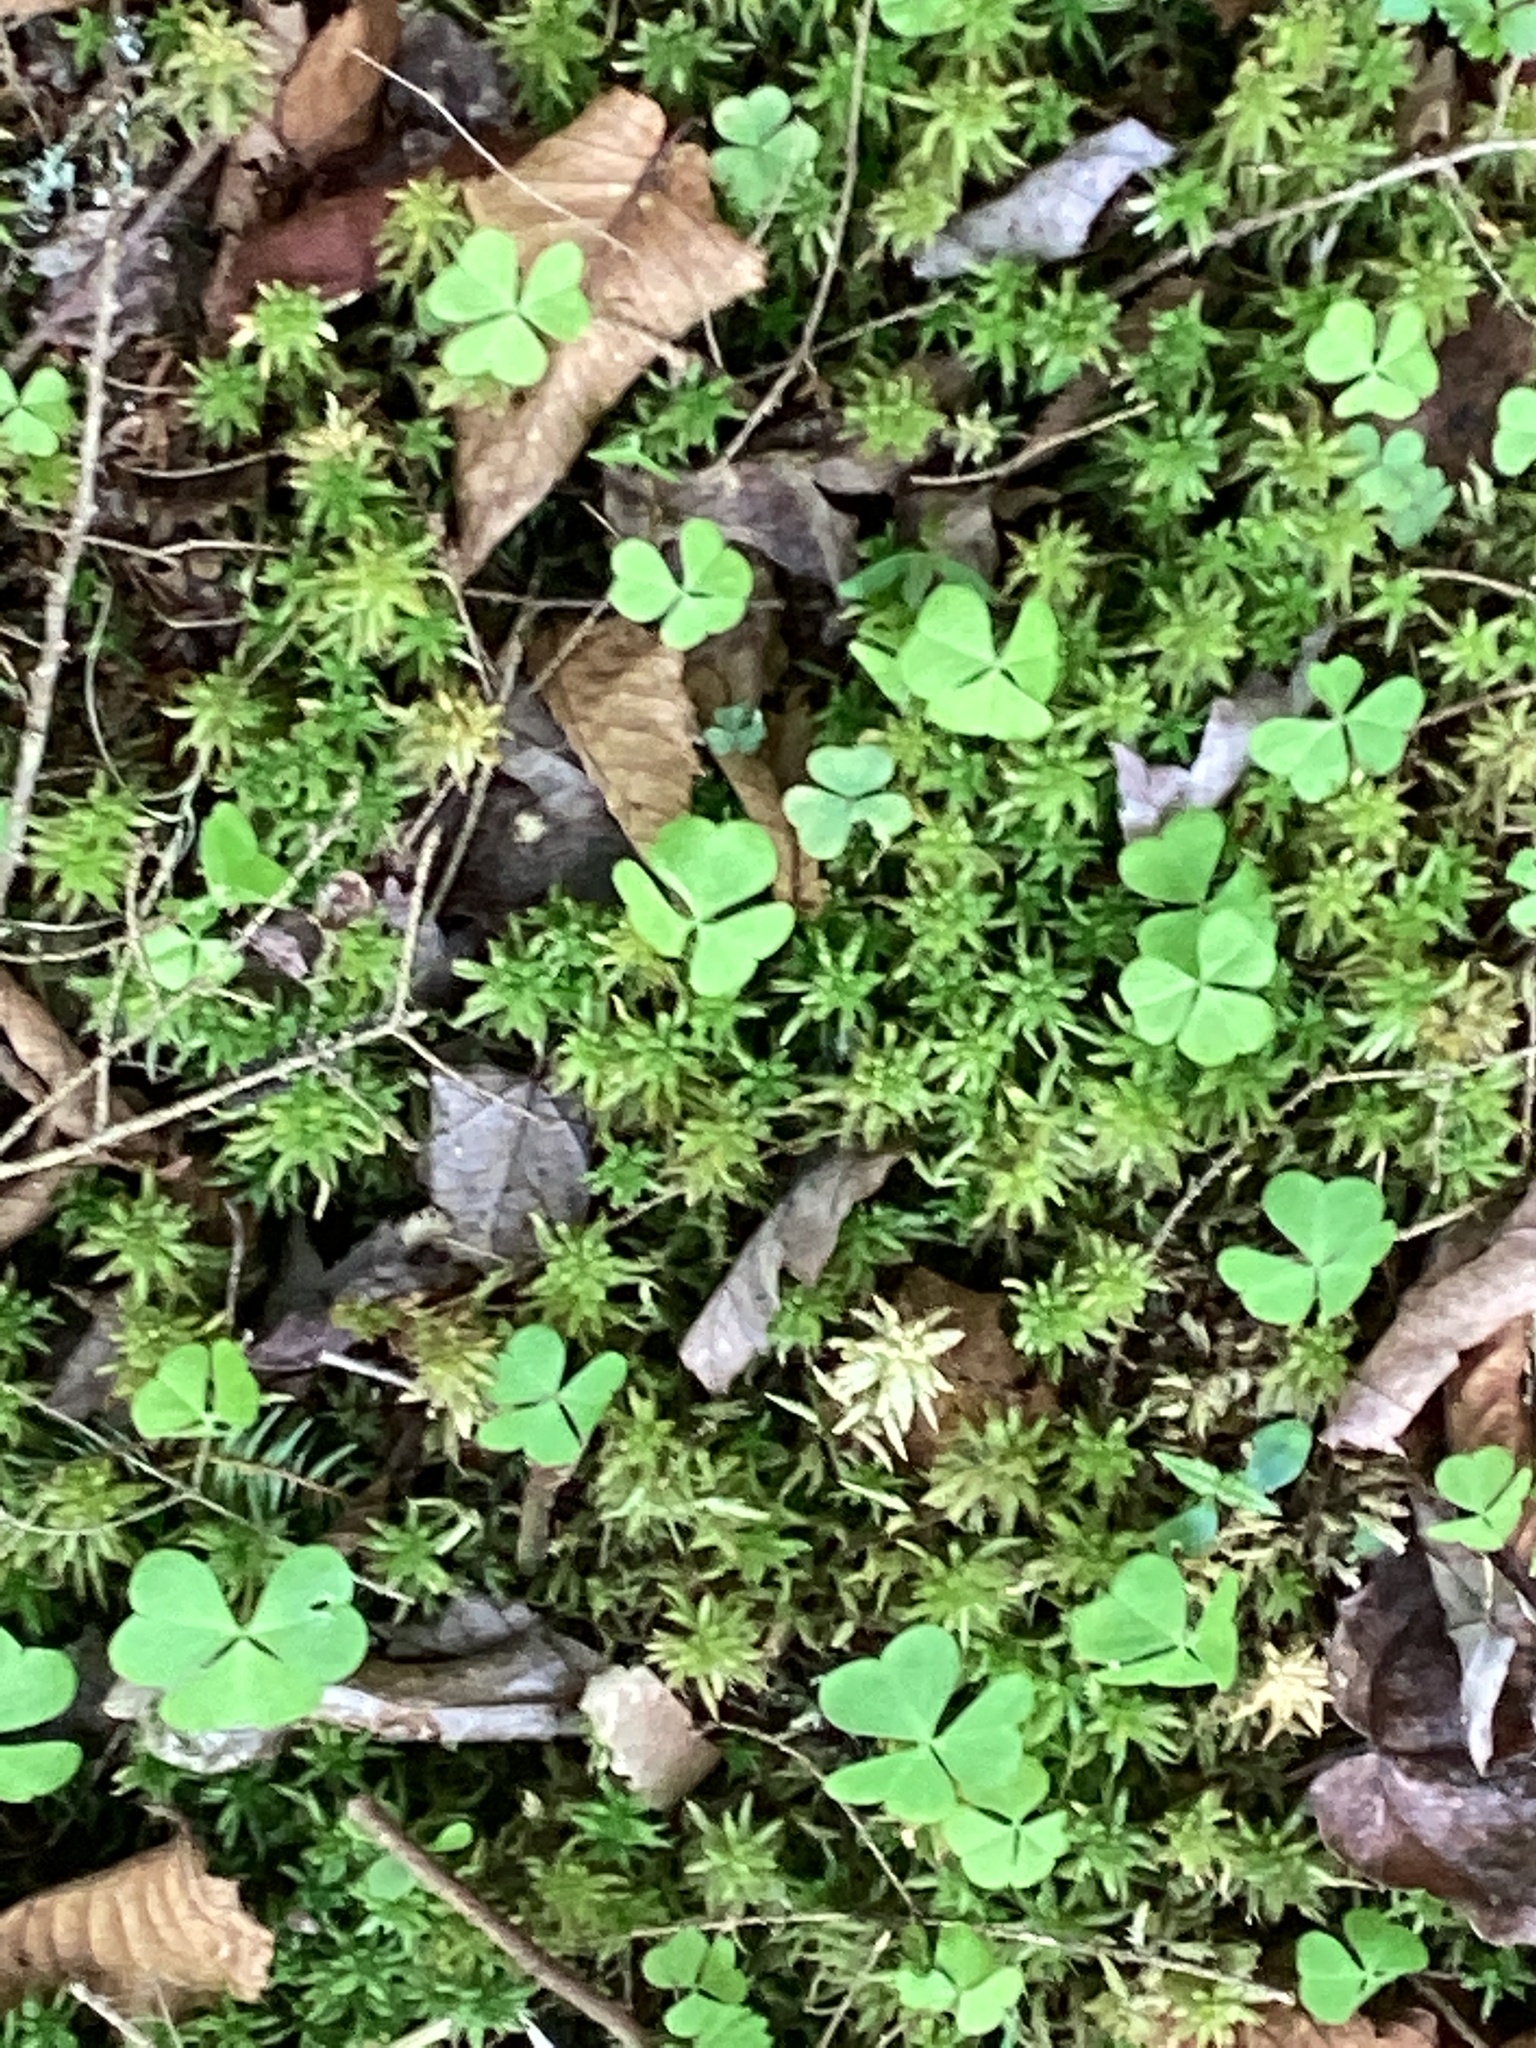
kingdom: Plantae
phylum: Tracheophyta
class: Magnoliopsida
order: Oxalidales
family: Oxalidaceae
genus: Oxalis
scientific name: Oxalis montana
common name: American wood-sorrel
